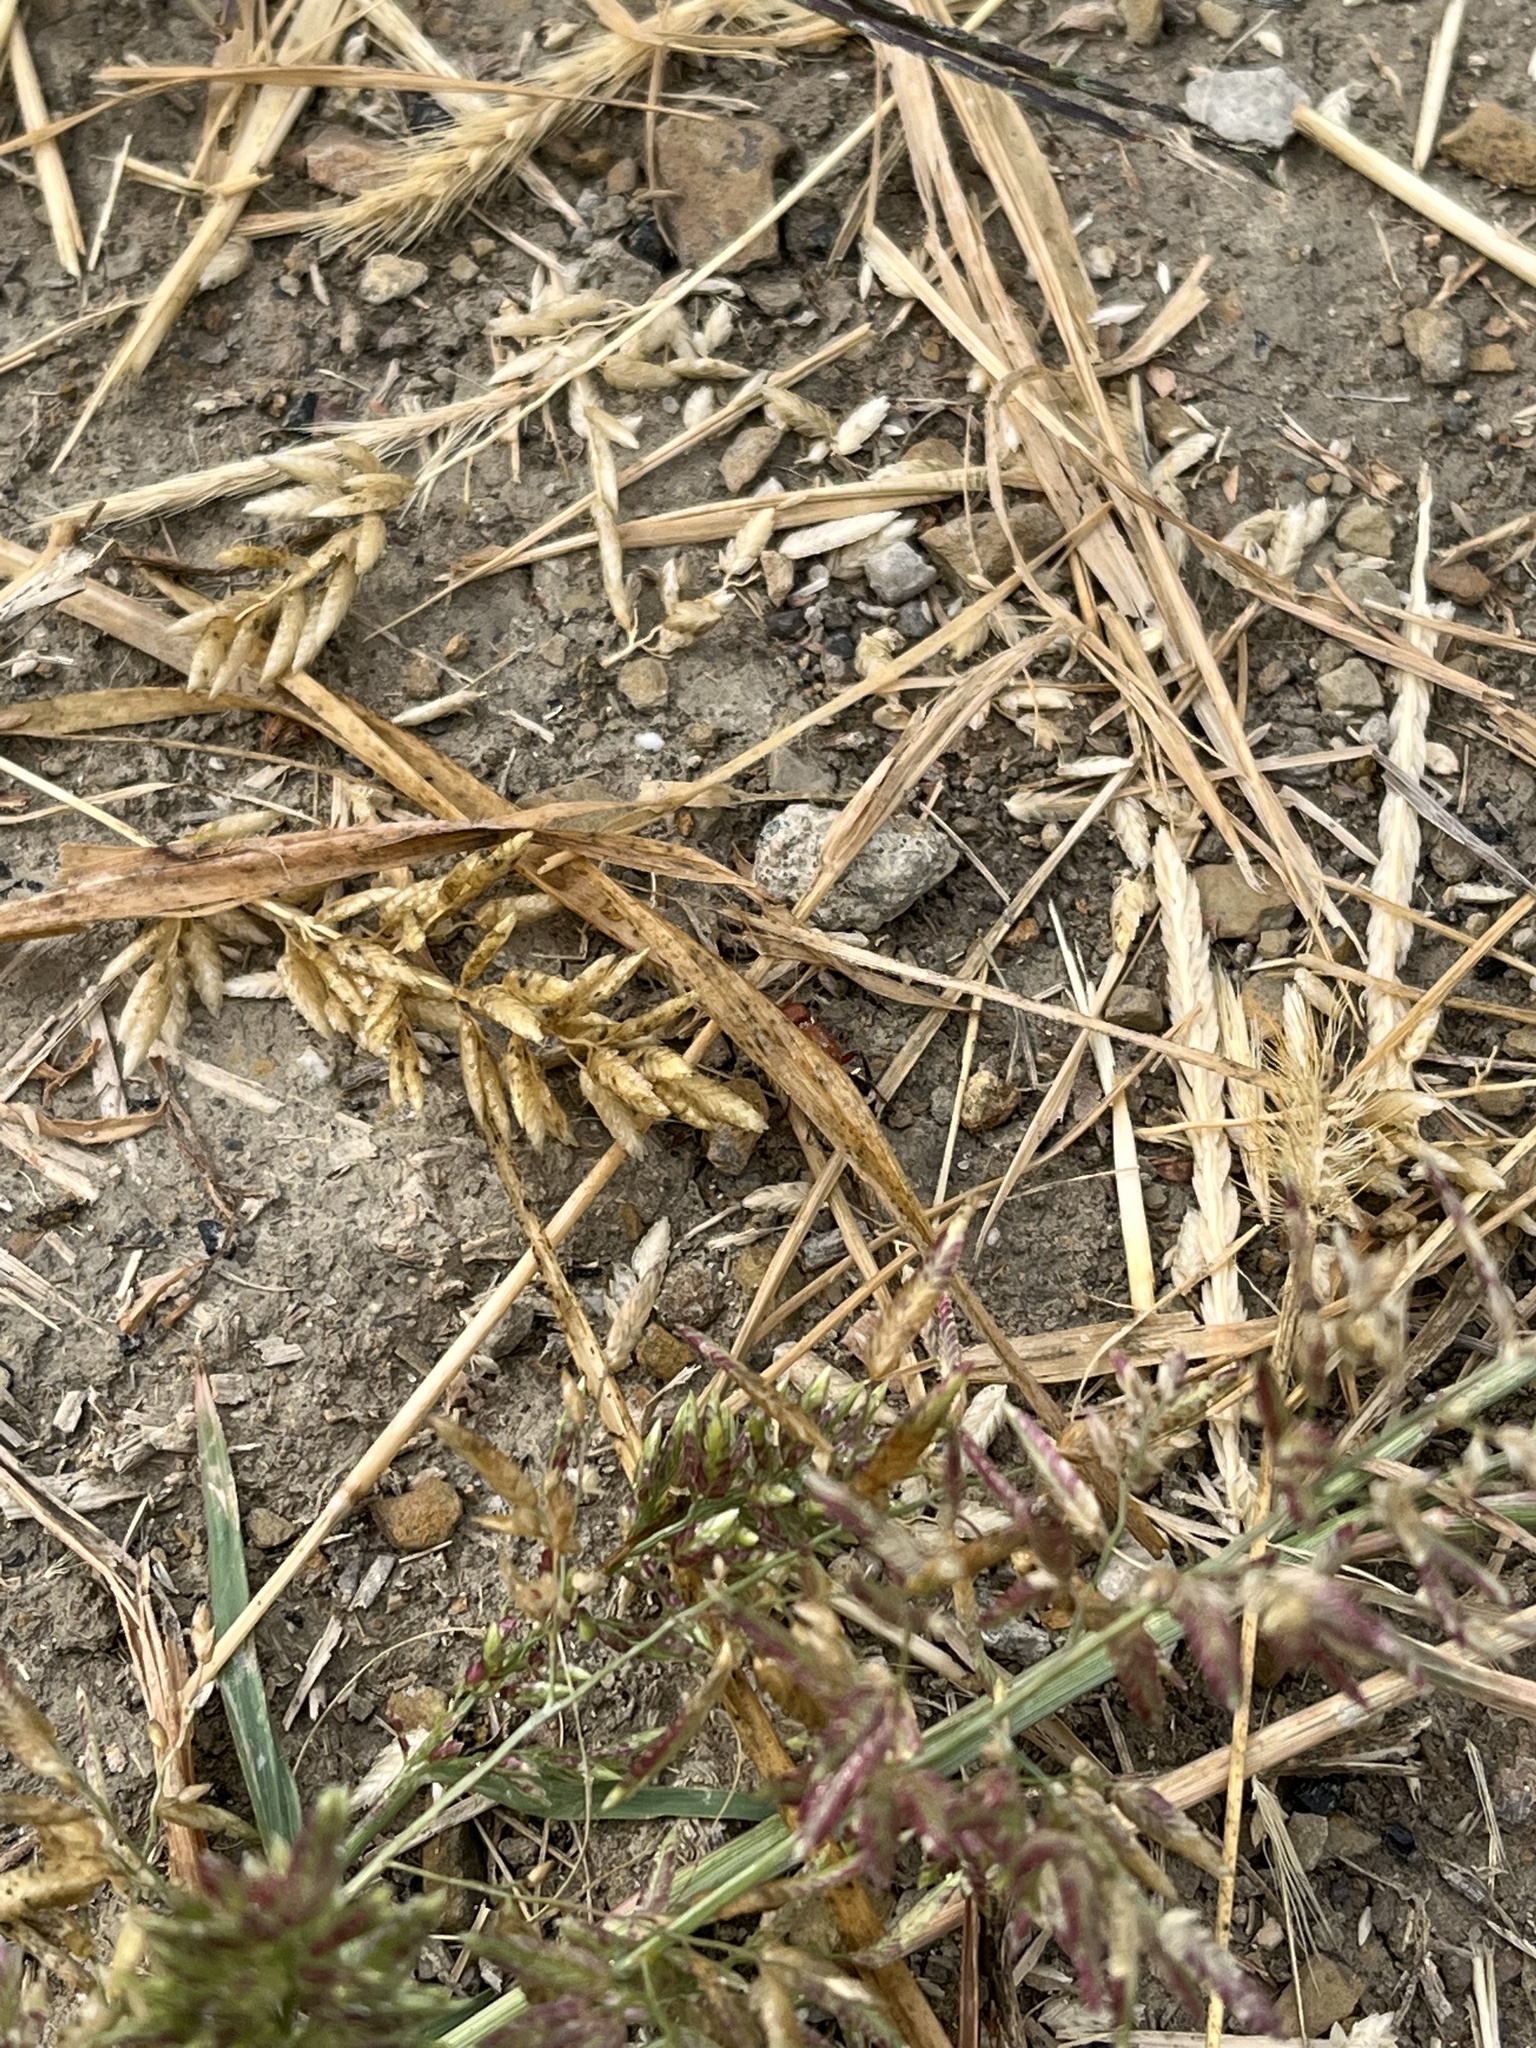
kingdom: Animalia
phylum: Arthropoda
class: Insecta
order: Hymenoptera
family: Mutillidae
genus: Timulla
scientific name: Timulla
